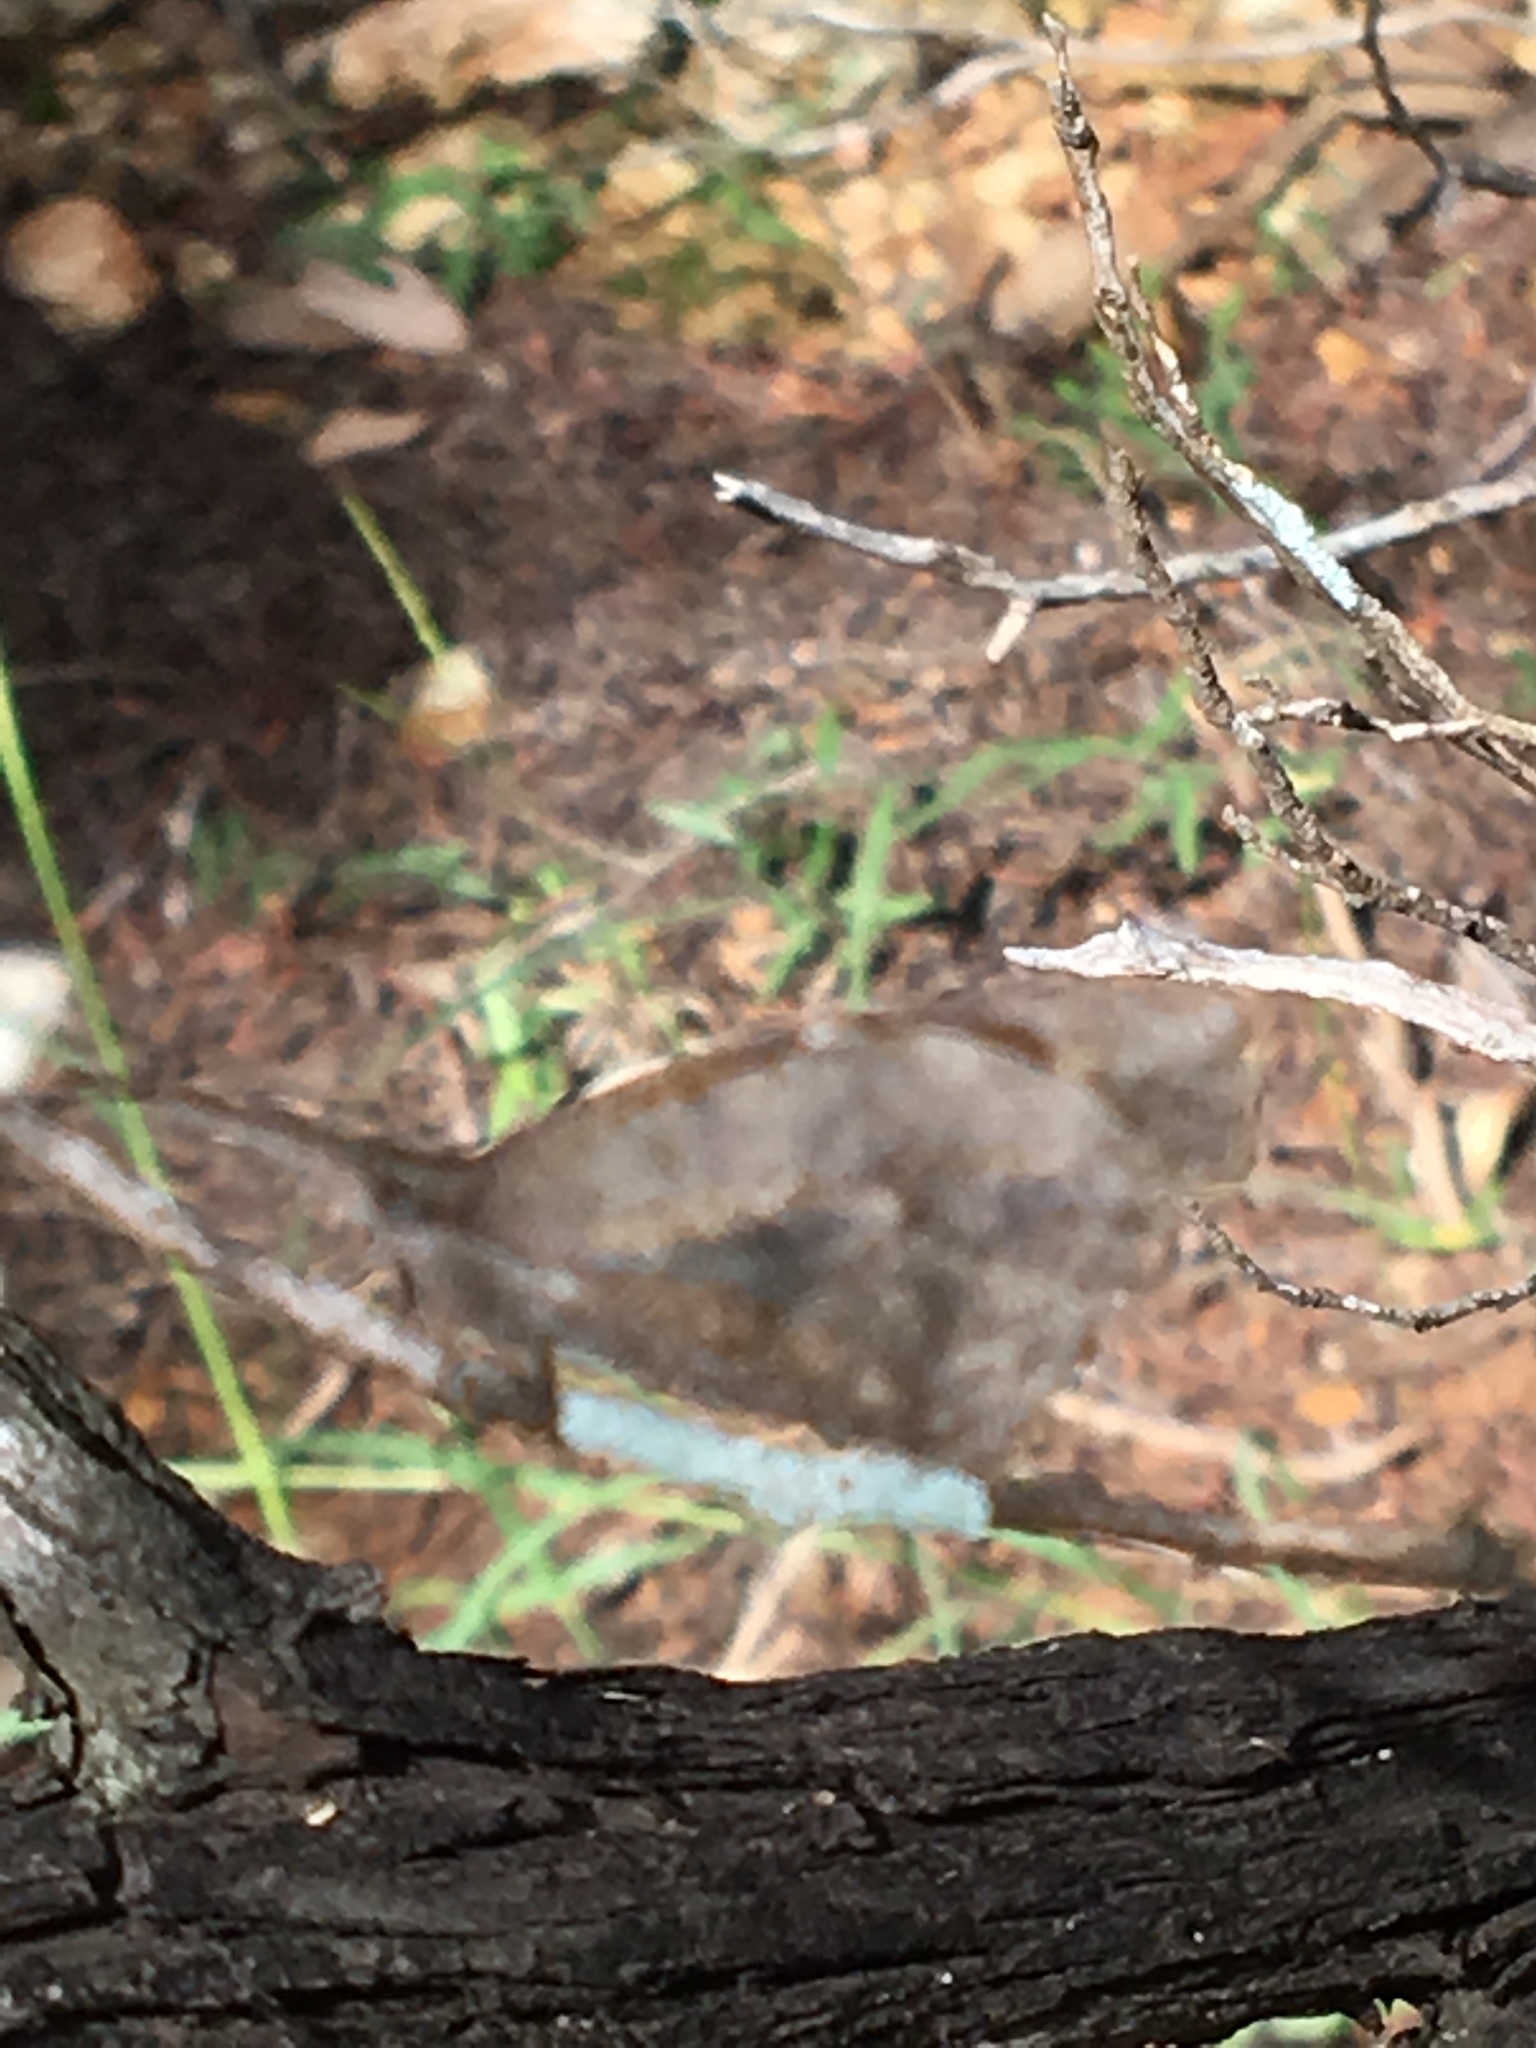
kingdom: Animalia
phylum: Arthropoda
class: Insecta
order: Lepidoptera
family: Nymphalidae
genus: Libytheana
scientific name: Libytheana carinenta
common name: American snout
